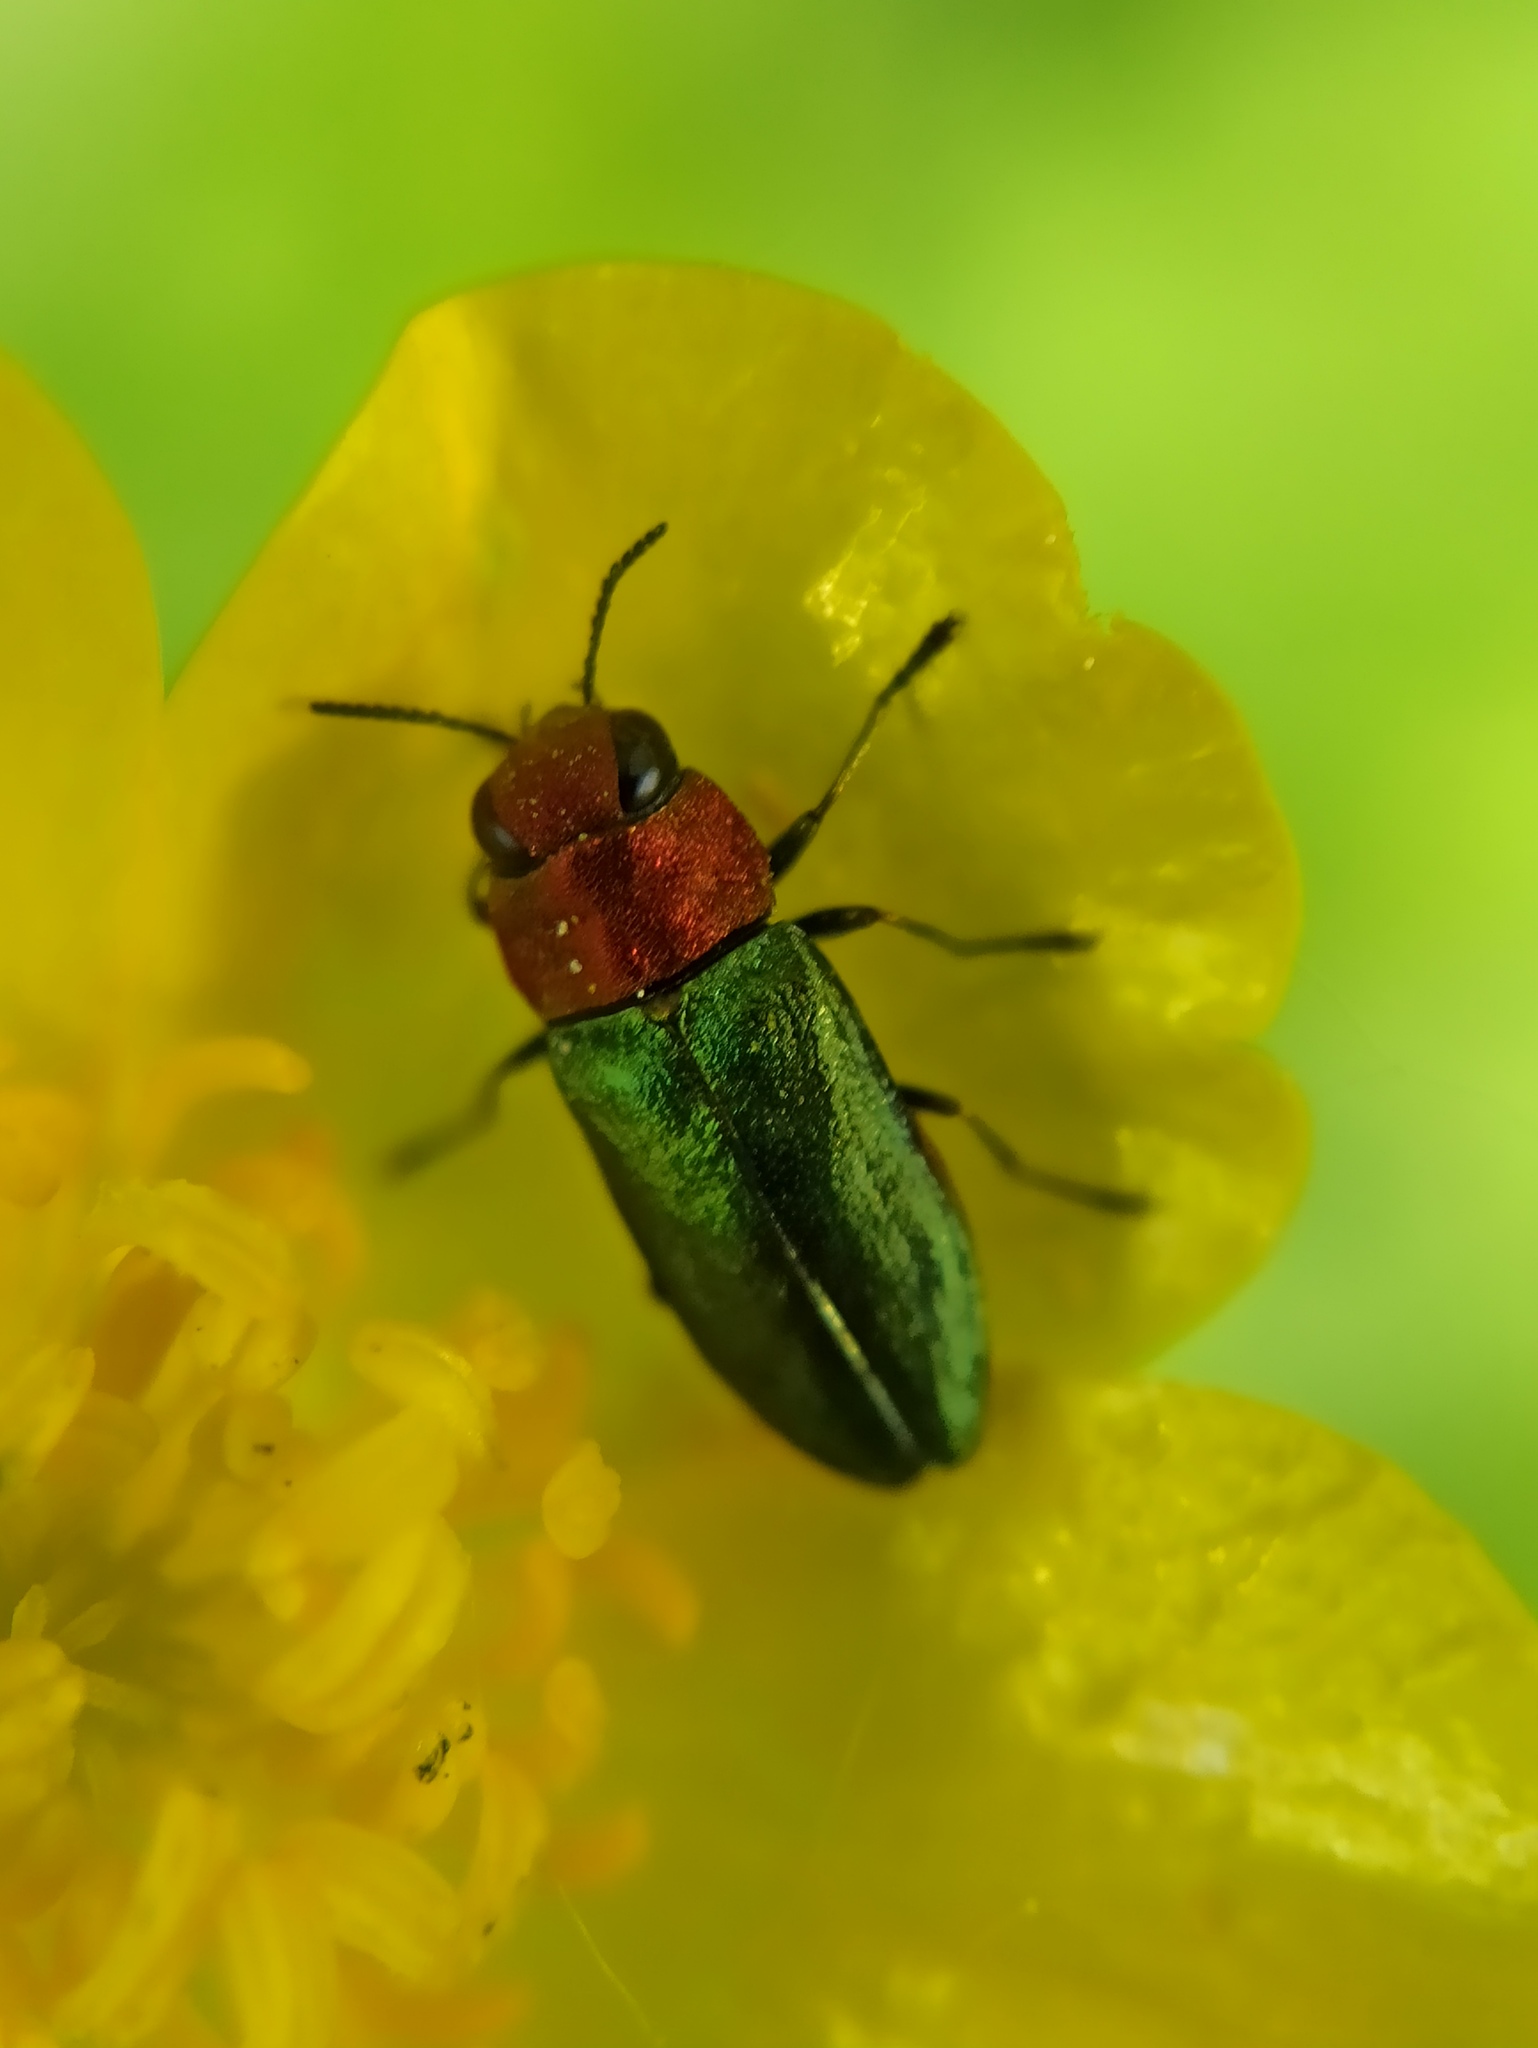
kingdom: Animalia
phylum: Arthropoda
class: Insecta
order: Coleoptera
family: Buprestidae
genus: Anthaxia
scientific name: Anthaxia nitidula
